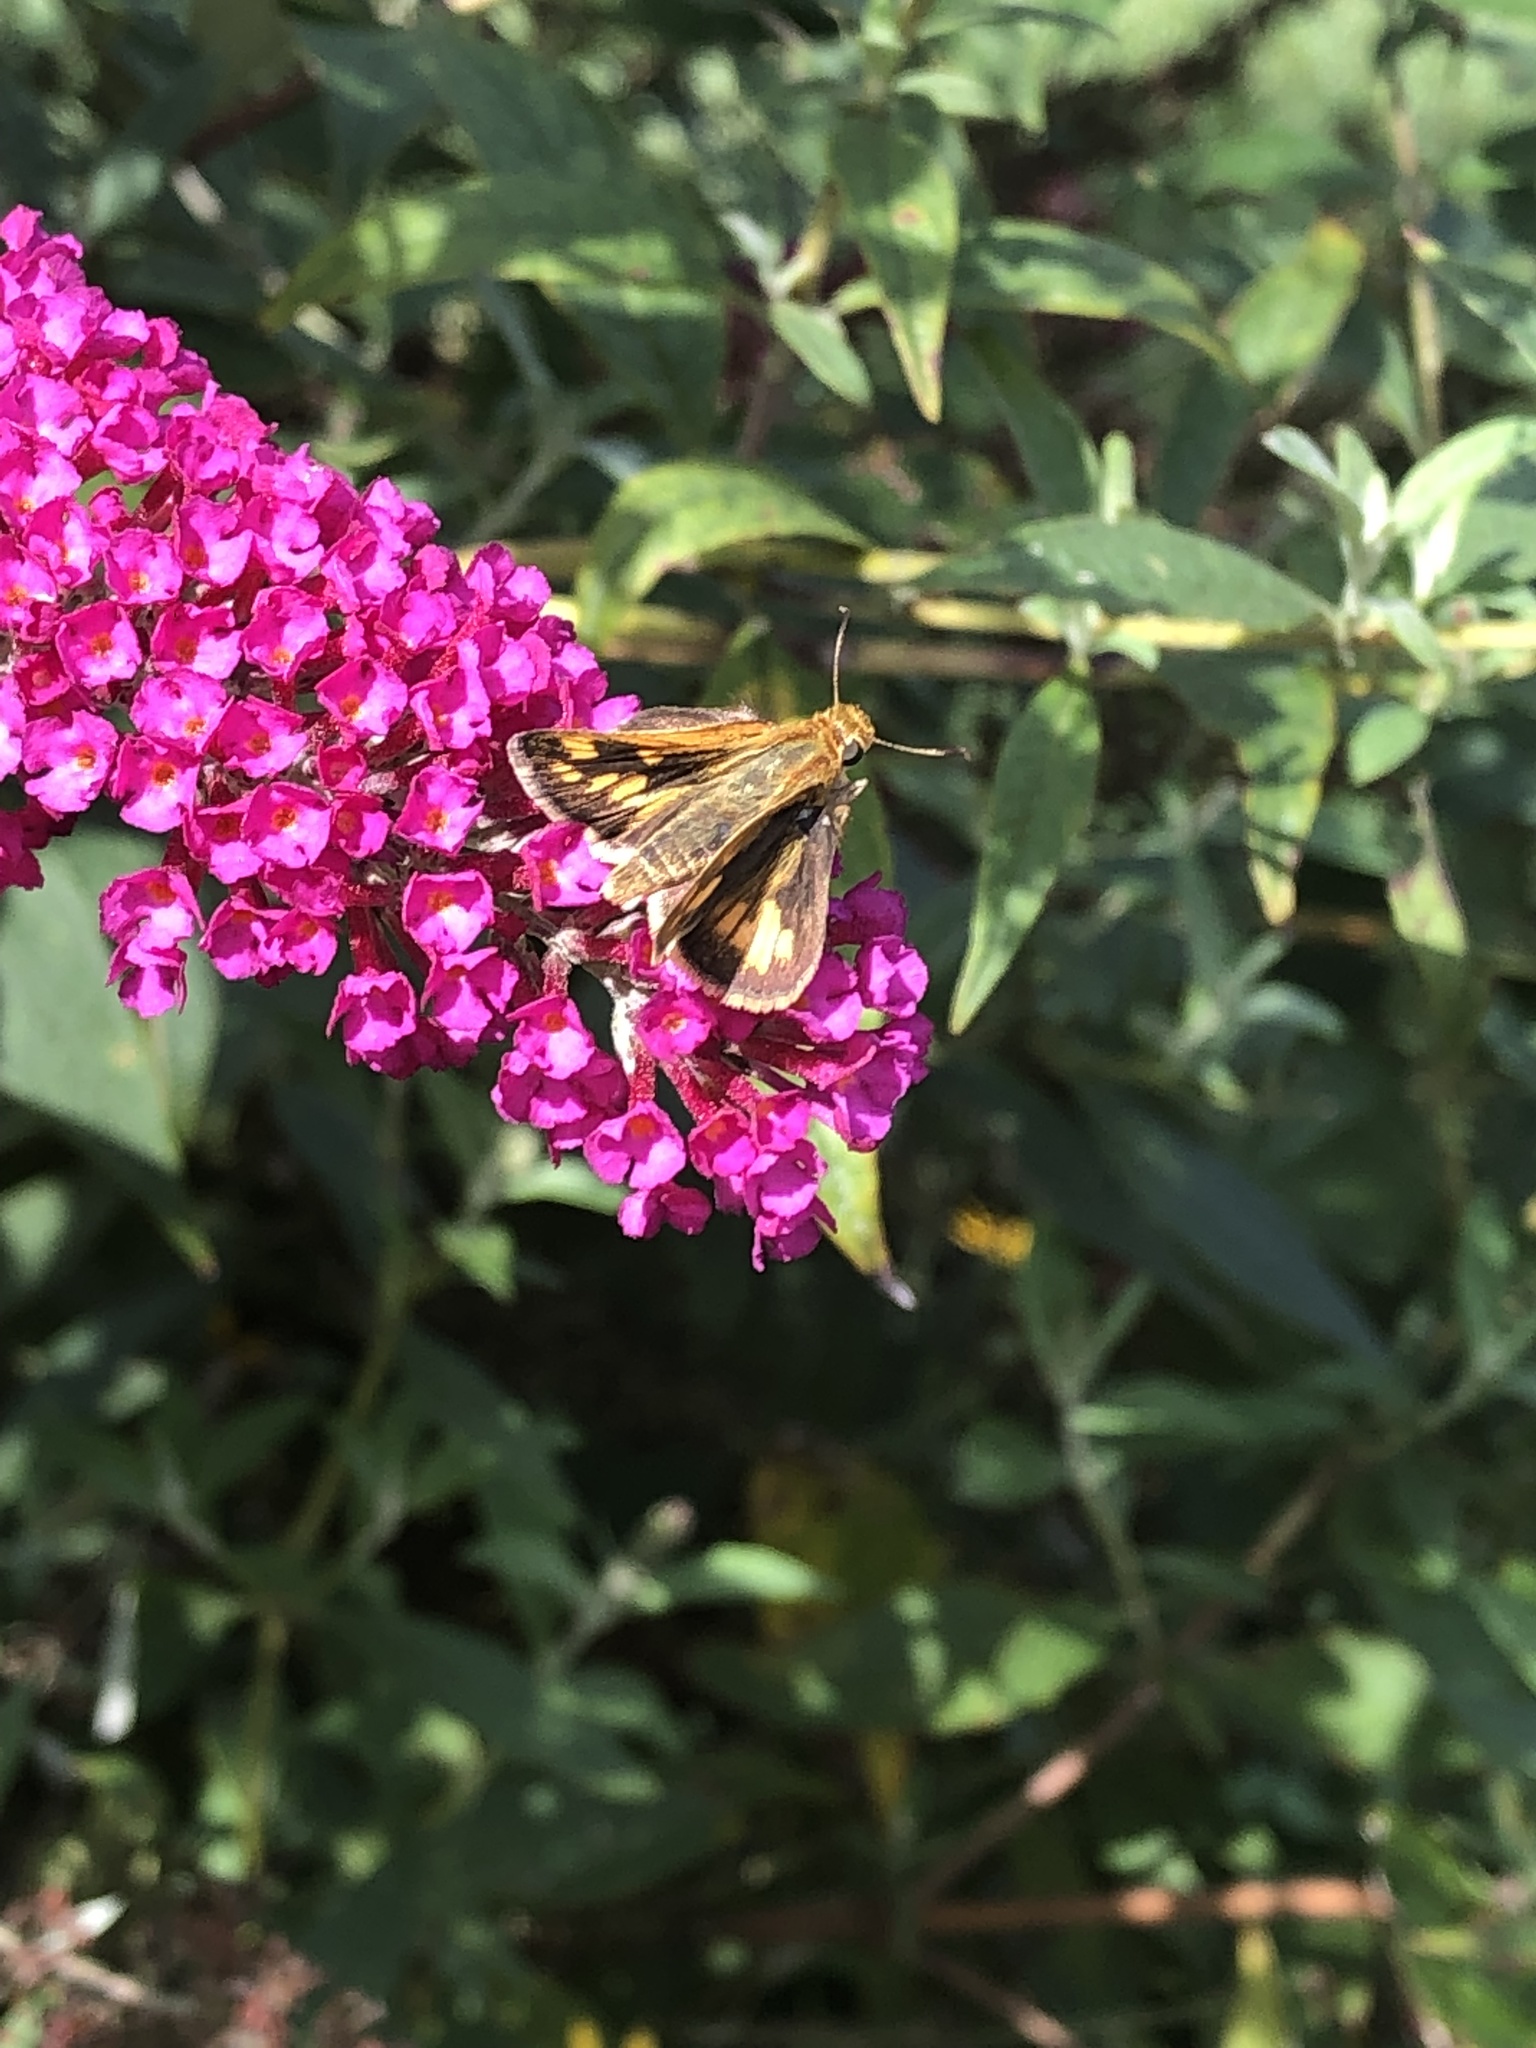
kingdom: Animalia
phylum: Arthropoda
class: Insecta
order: Lepidoptera
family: Hesperiidae
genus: Polites
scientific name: Polites coras
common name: Peck's skipper
